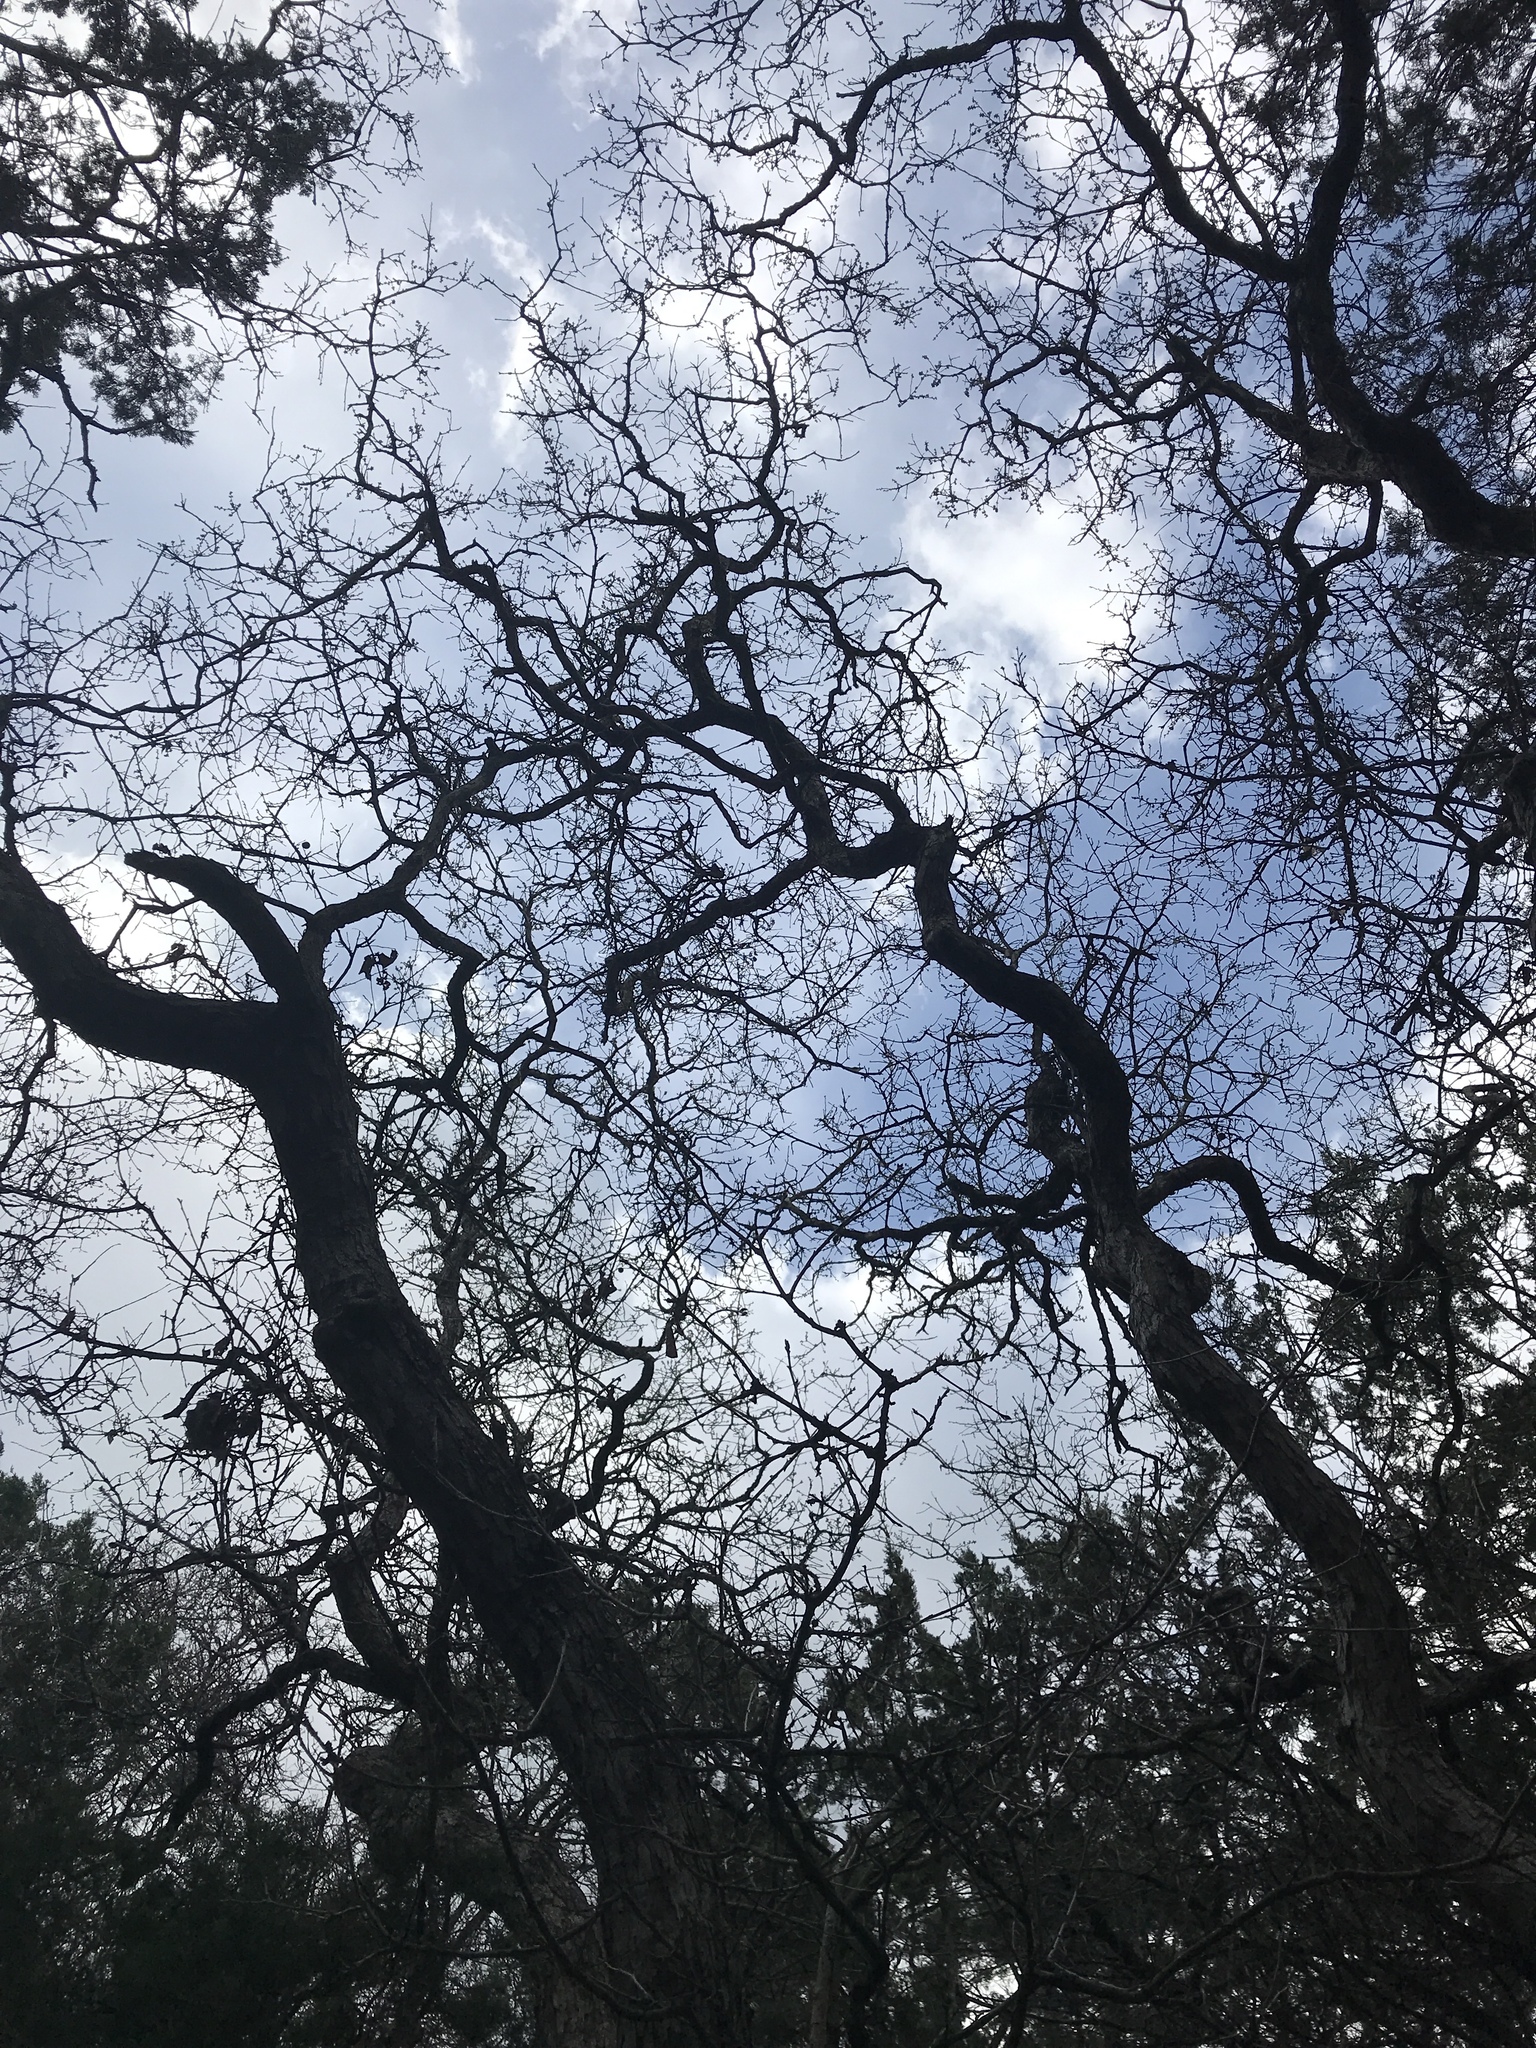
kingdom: Plantae
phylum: Tracheophyta
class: Magnoliopsida
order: Fagales
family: Fagaceae
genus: Quercus
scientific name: Quercus sinuata
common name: Durand oak
